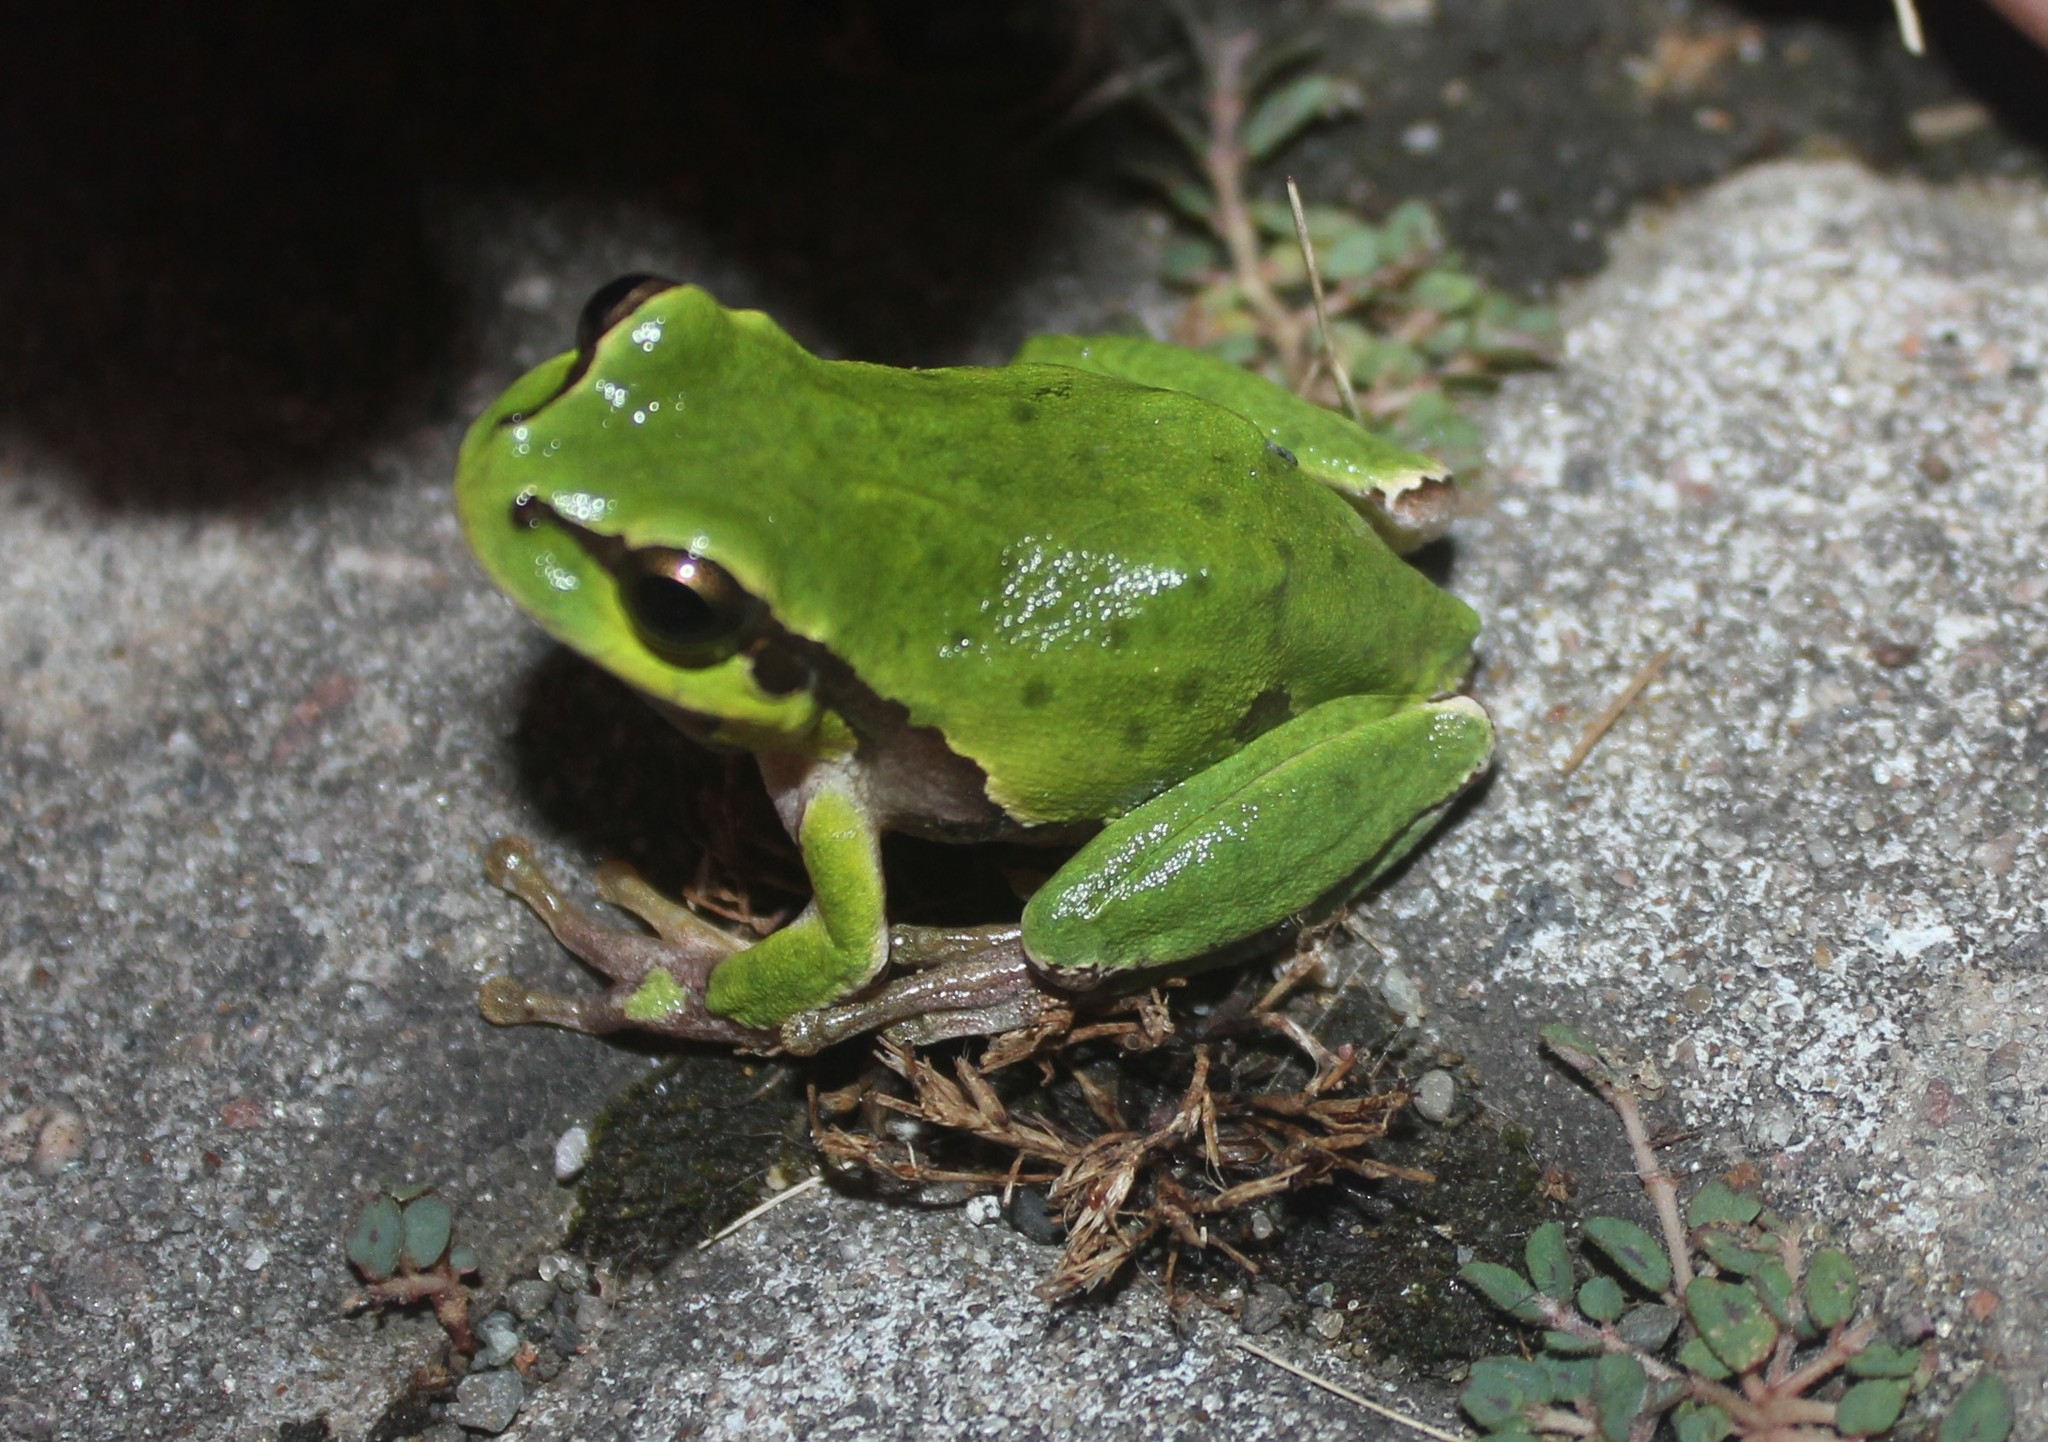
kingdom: Animalia
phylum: Chordata
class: Amphibia
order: Anura
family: Hylidae
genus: Hyla
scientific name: Hyla orientalis
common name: Caucasian treefrog
